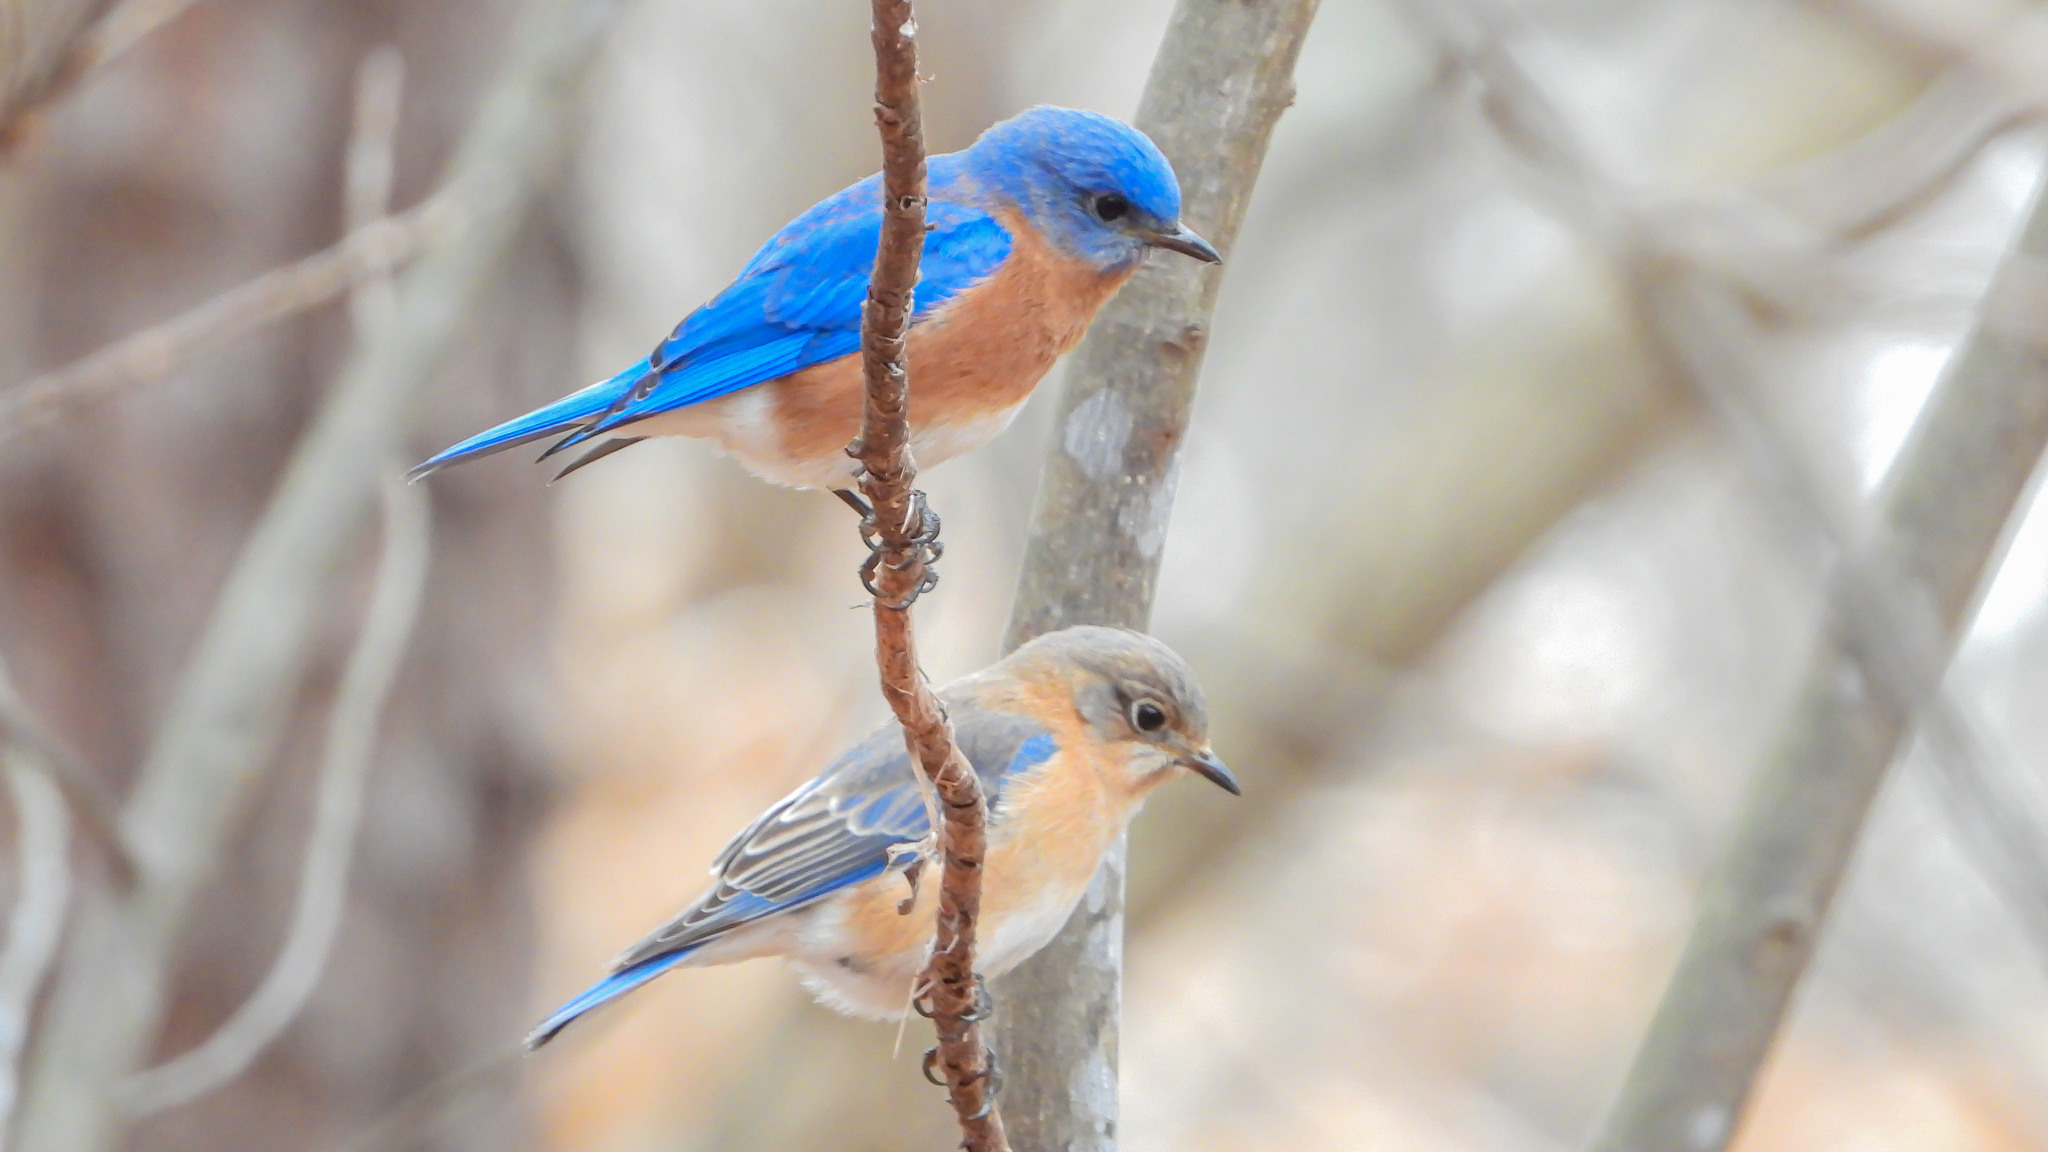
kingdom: Animalia
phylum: Chordata
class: Aves
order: Passeriformes
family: Turdidae
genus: Sialia
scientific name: Sialia sialis
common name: Eastern bluebird
